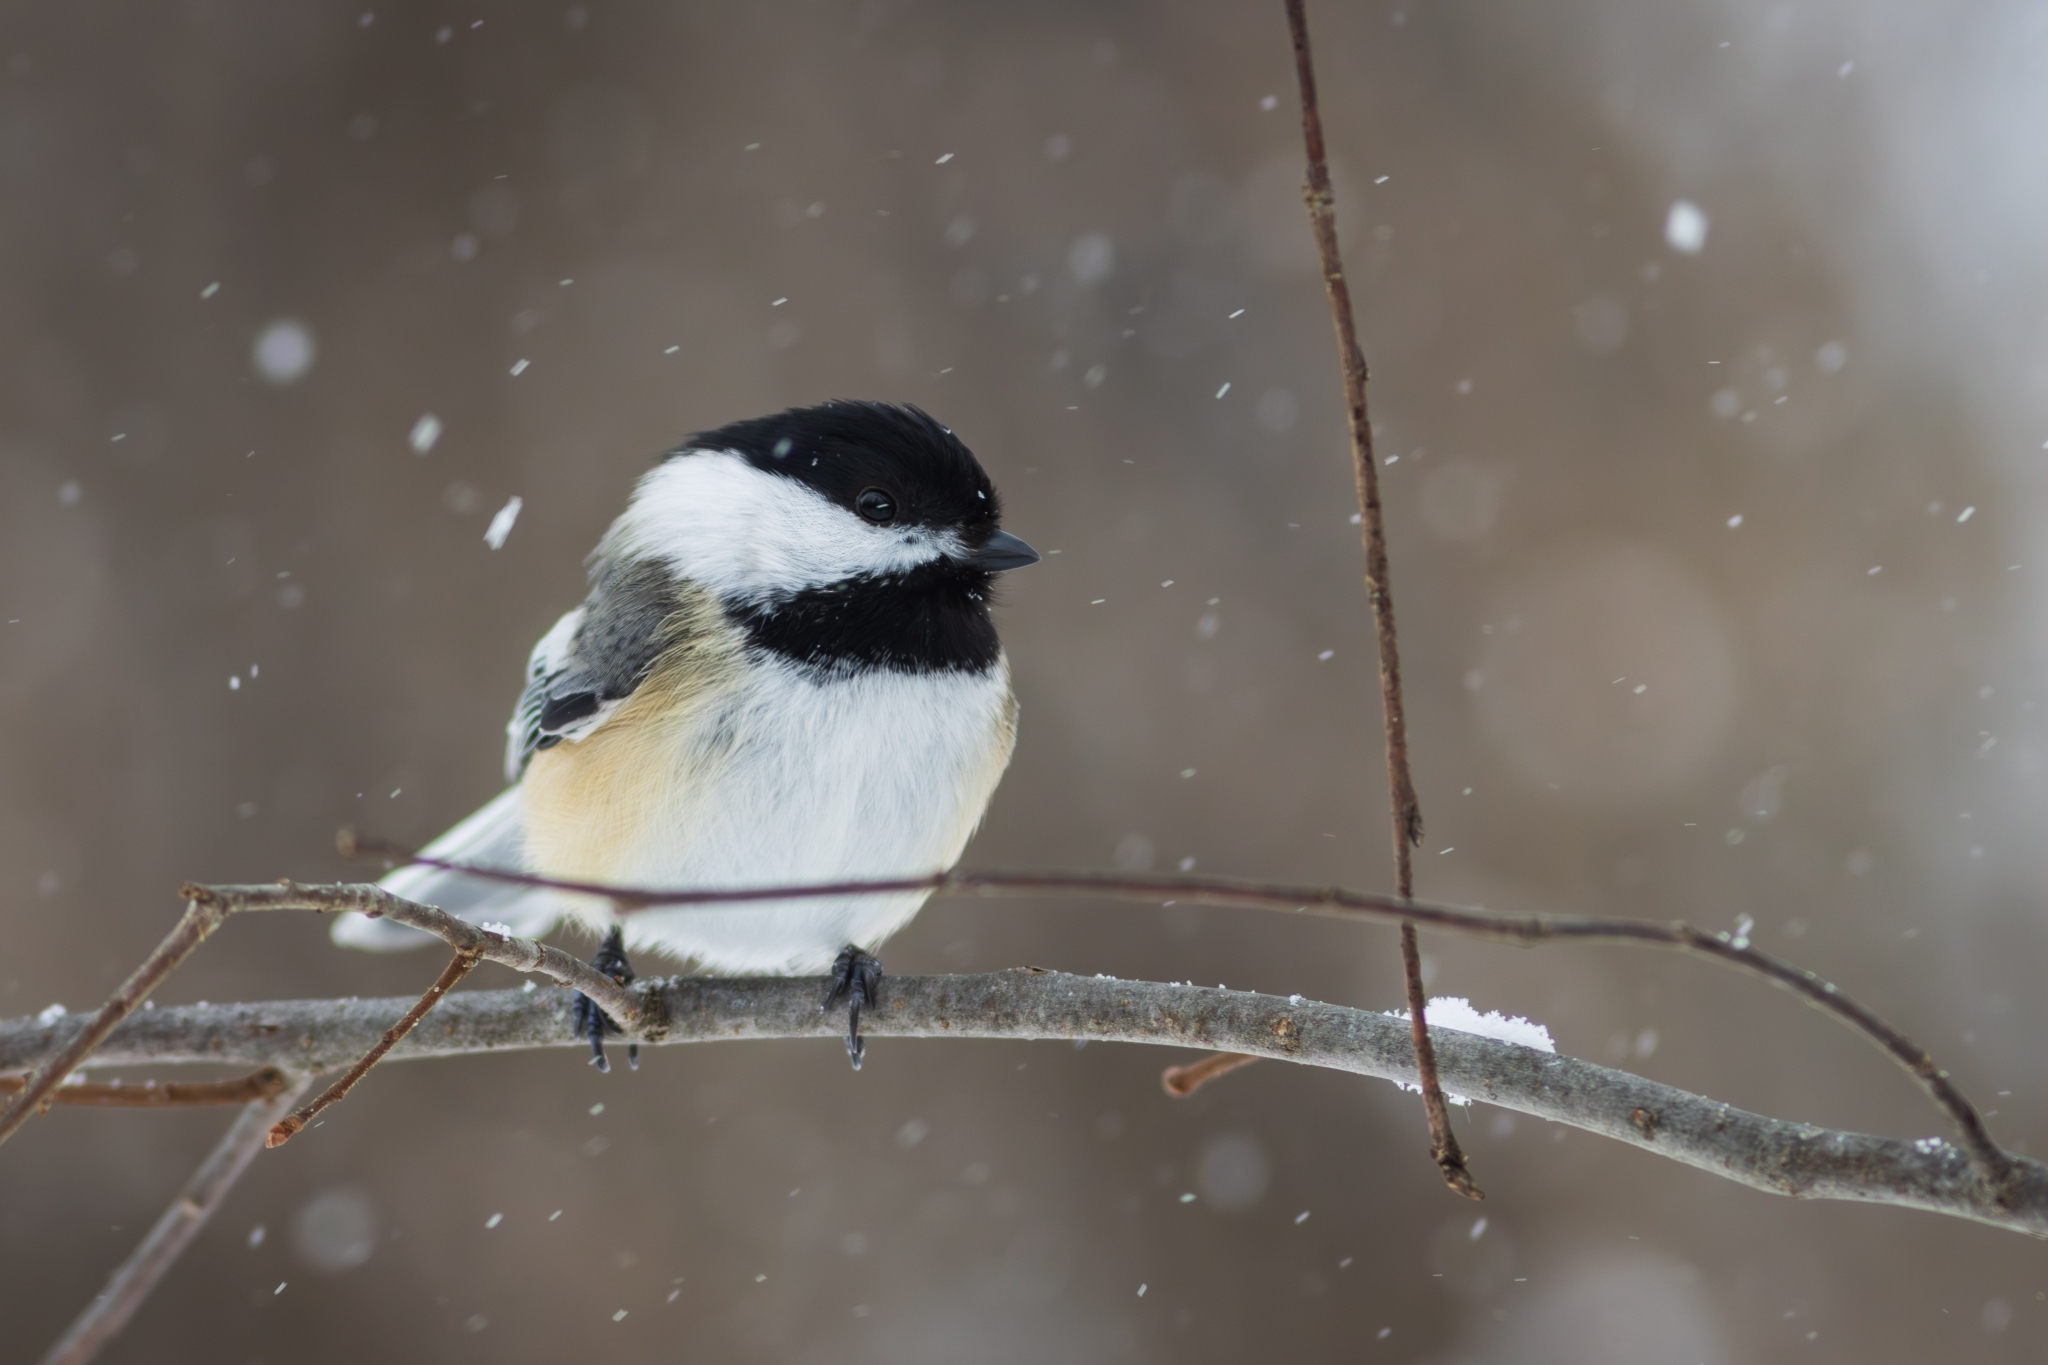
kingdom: Animalia
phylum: Chordata
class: Aves
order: Passeriformes
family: Paridae
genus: Poecile
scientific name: Poecile atricapillus
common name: Black-capped chickadee
